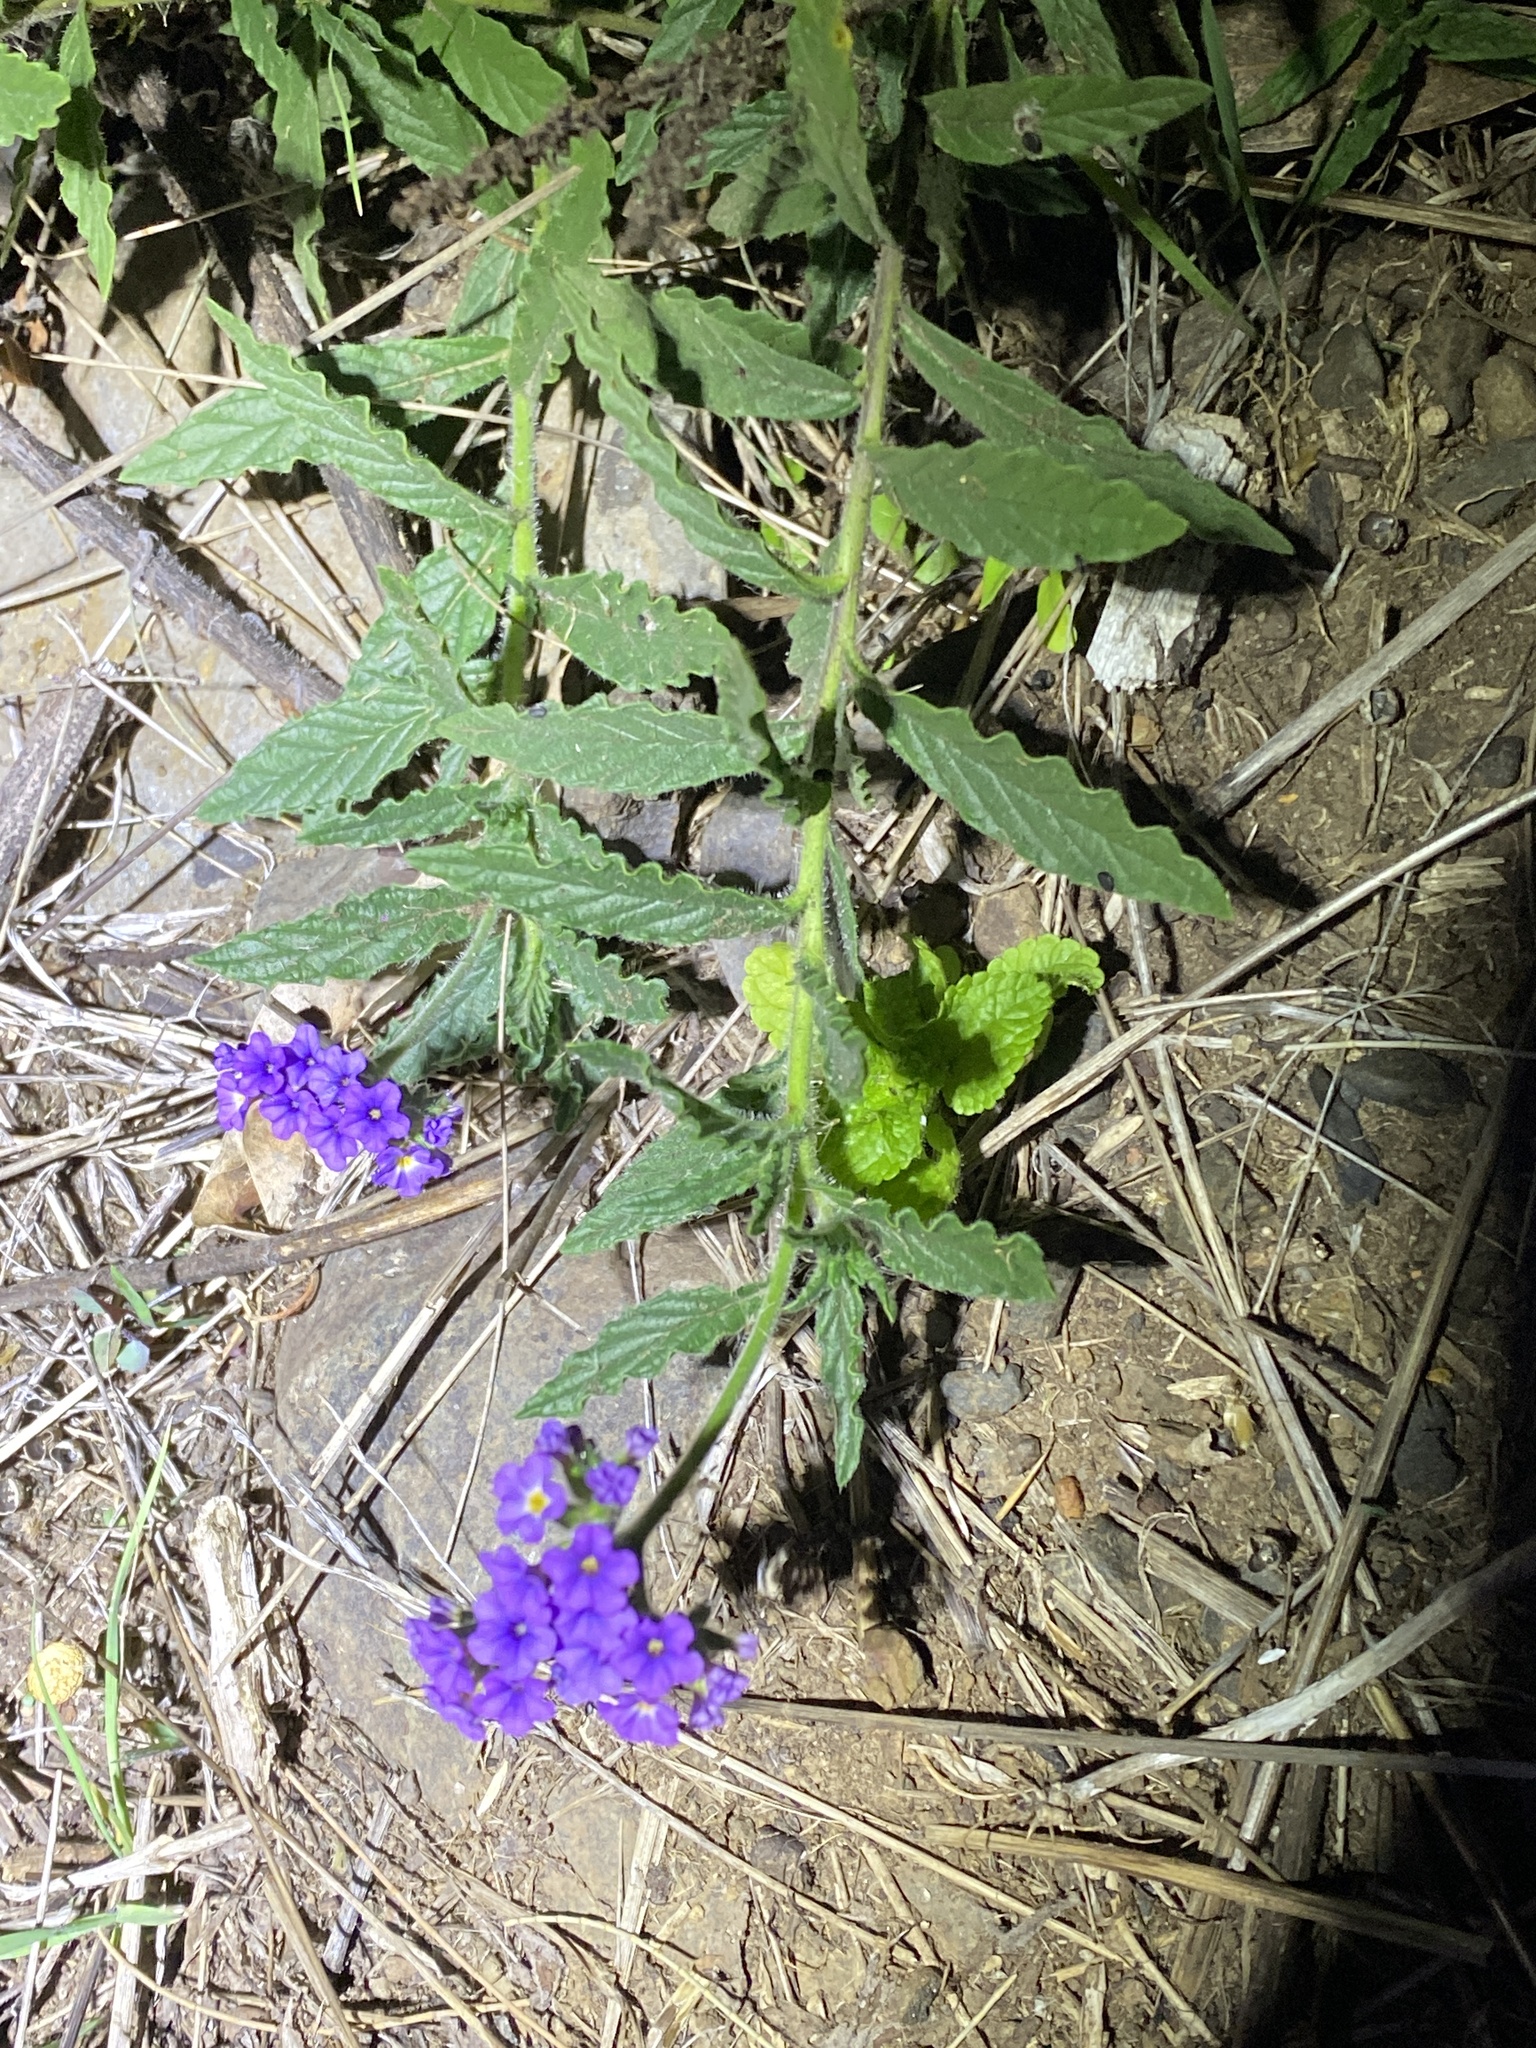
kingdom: Plantae
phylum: Tracheophyta
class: Magnoliopsida
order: Boraginales
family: Heliotropiaceae
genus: Heliotropium
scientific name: Heliotropium amplexicaule
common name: Clasping heliotrope
